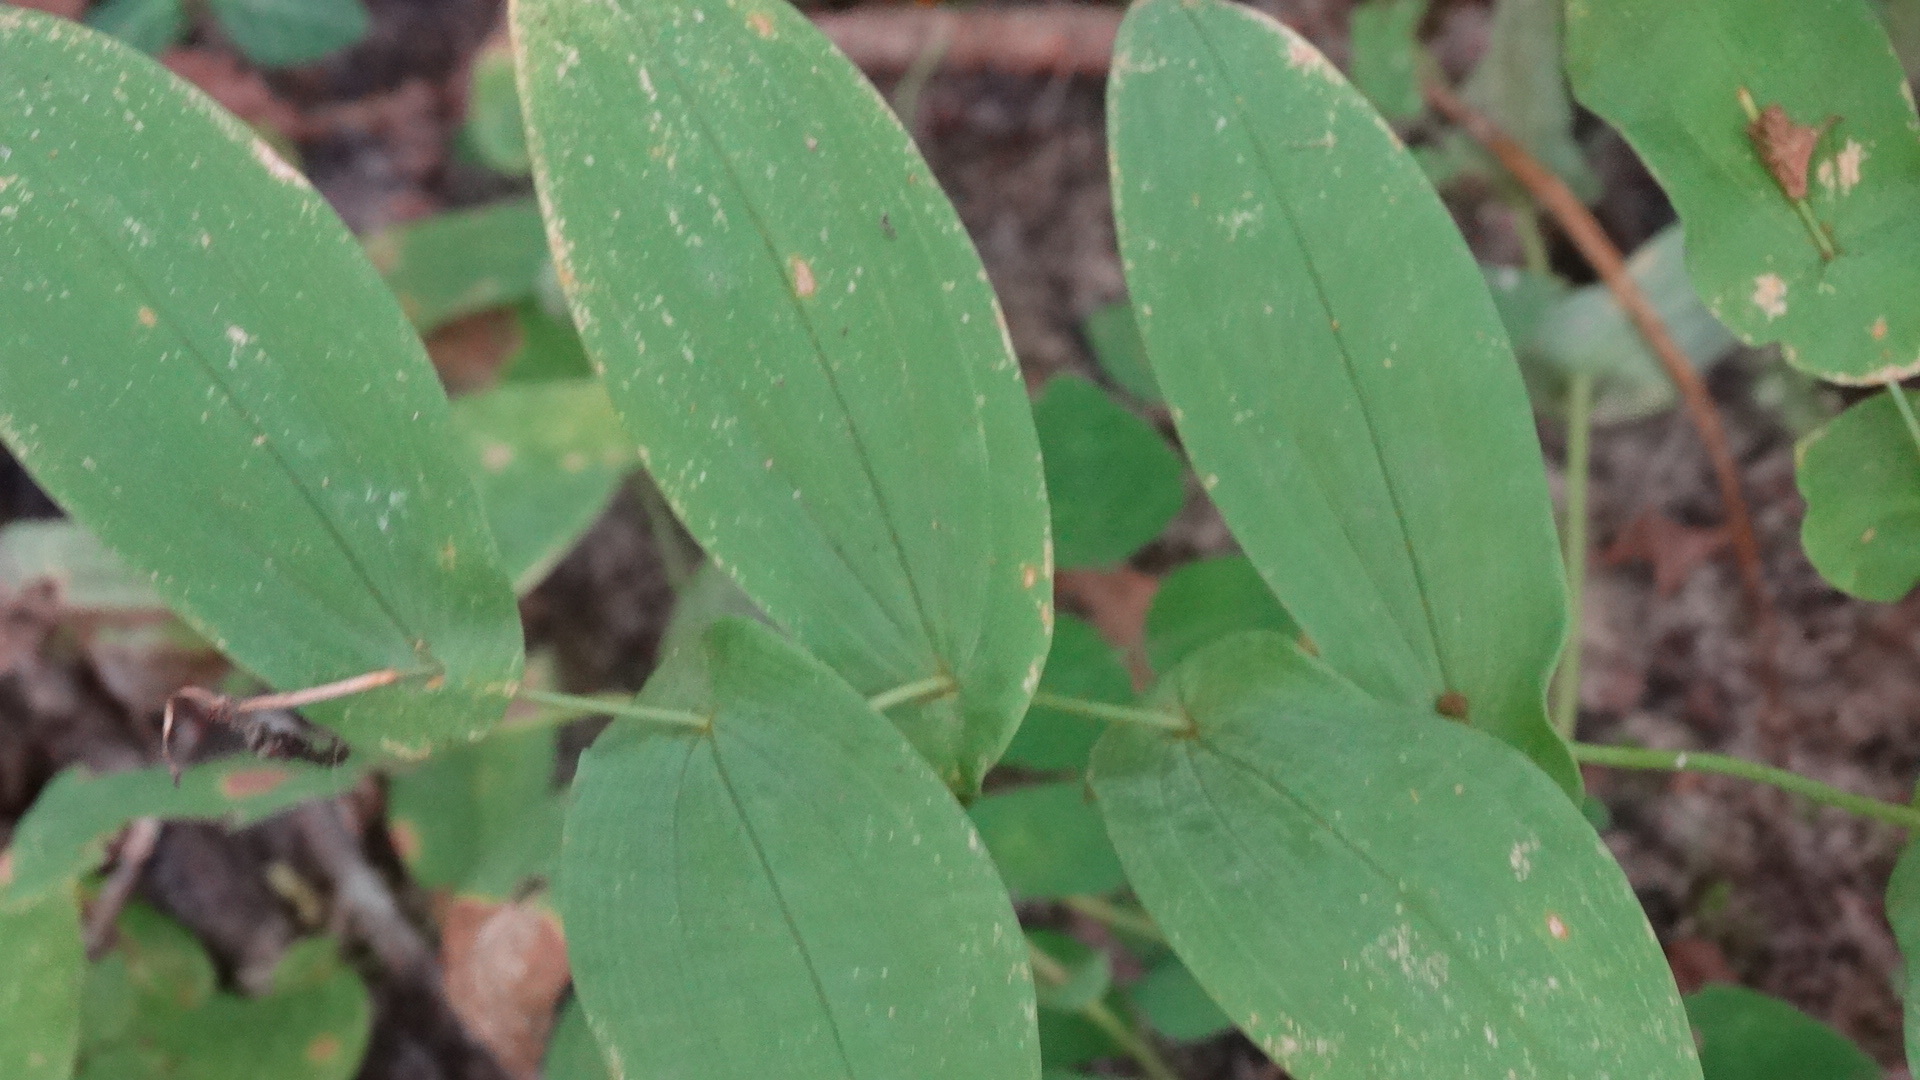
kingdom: Plantae
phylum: Tracheophyta
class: Liliopsida
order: Liliales
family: Colchicaceae
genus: Uvularia
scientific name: Uvularia grandiflora
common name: Bellwort
